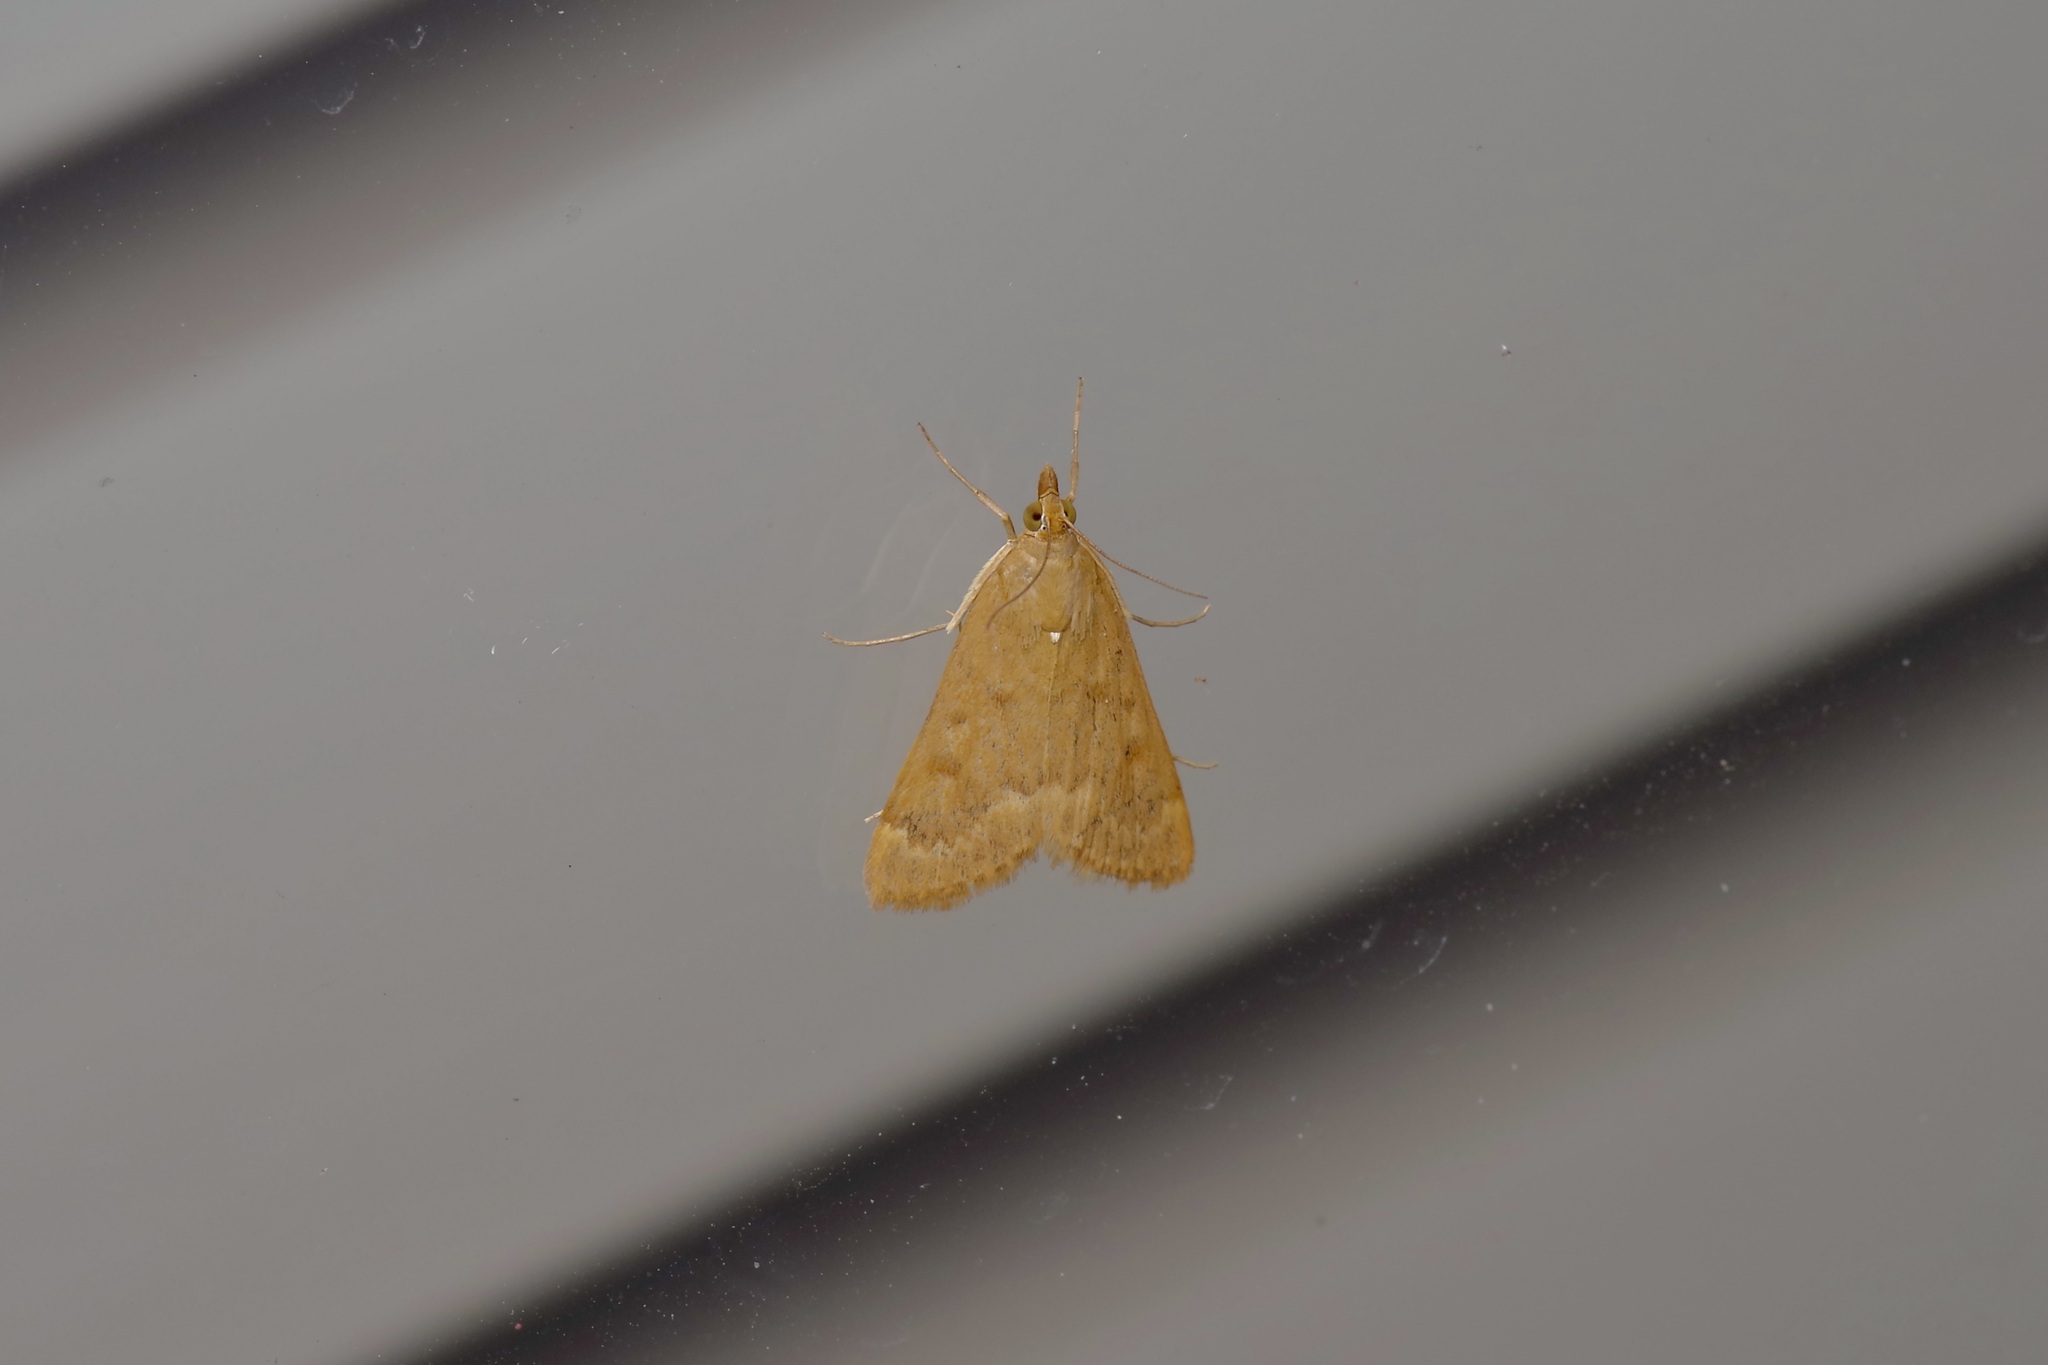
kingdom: Animalia
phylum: Arthropoda
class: Insecta
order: Lepidoptera
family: Crambidae
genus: Achyra
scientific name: Achyra rantalis
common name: Garden webworm
